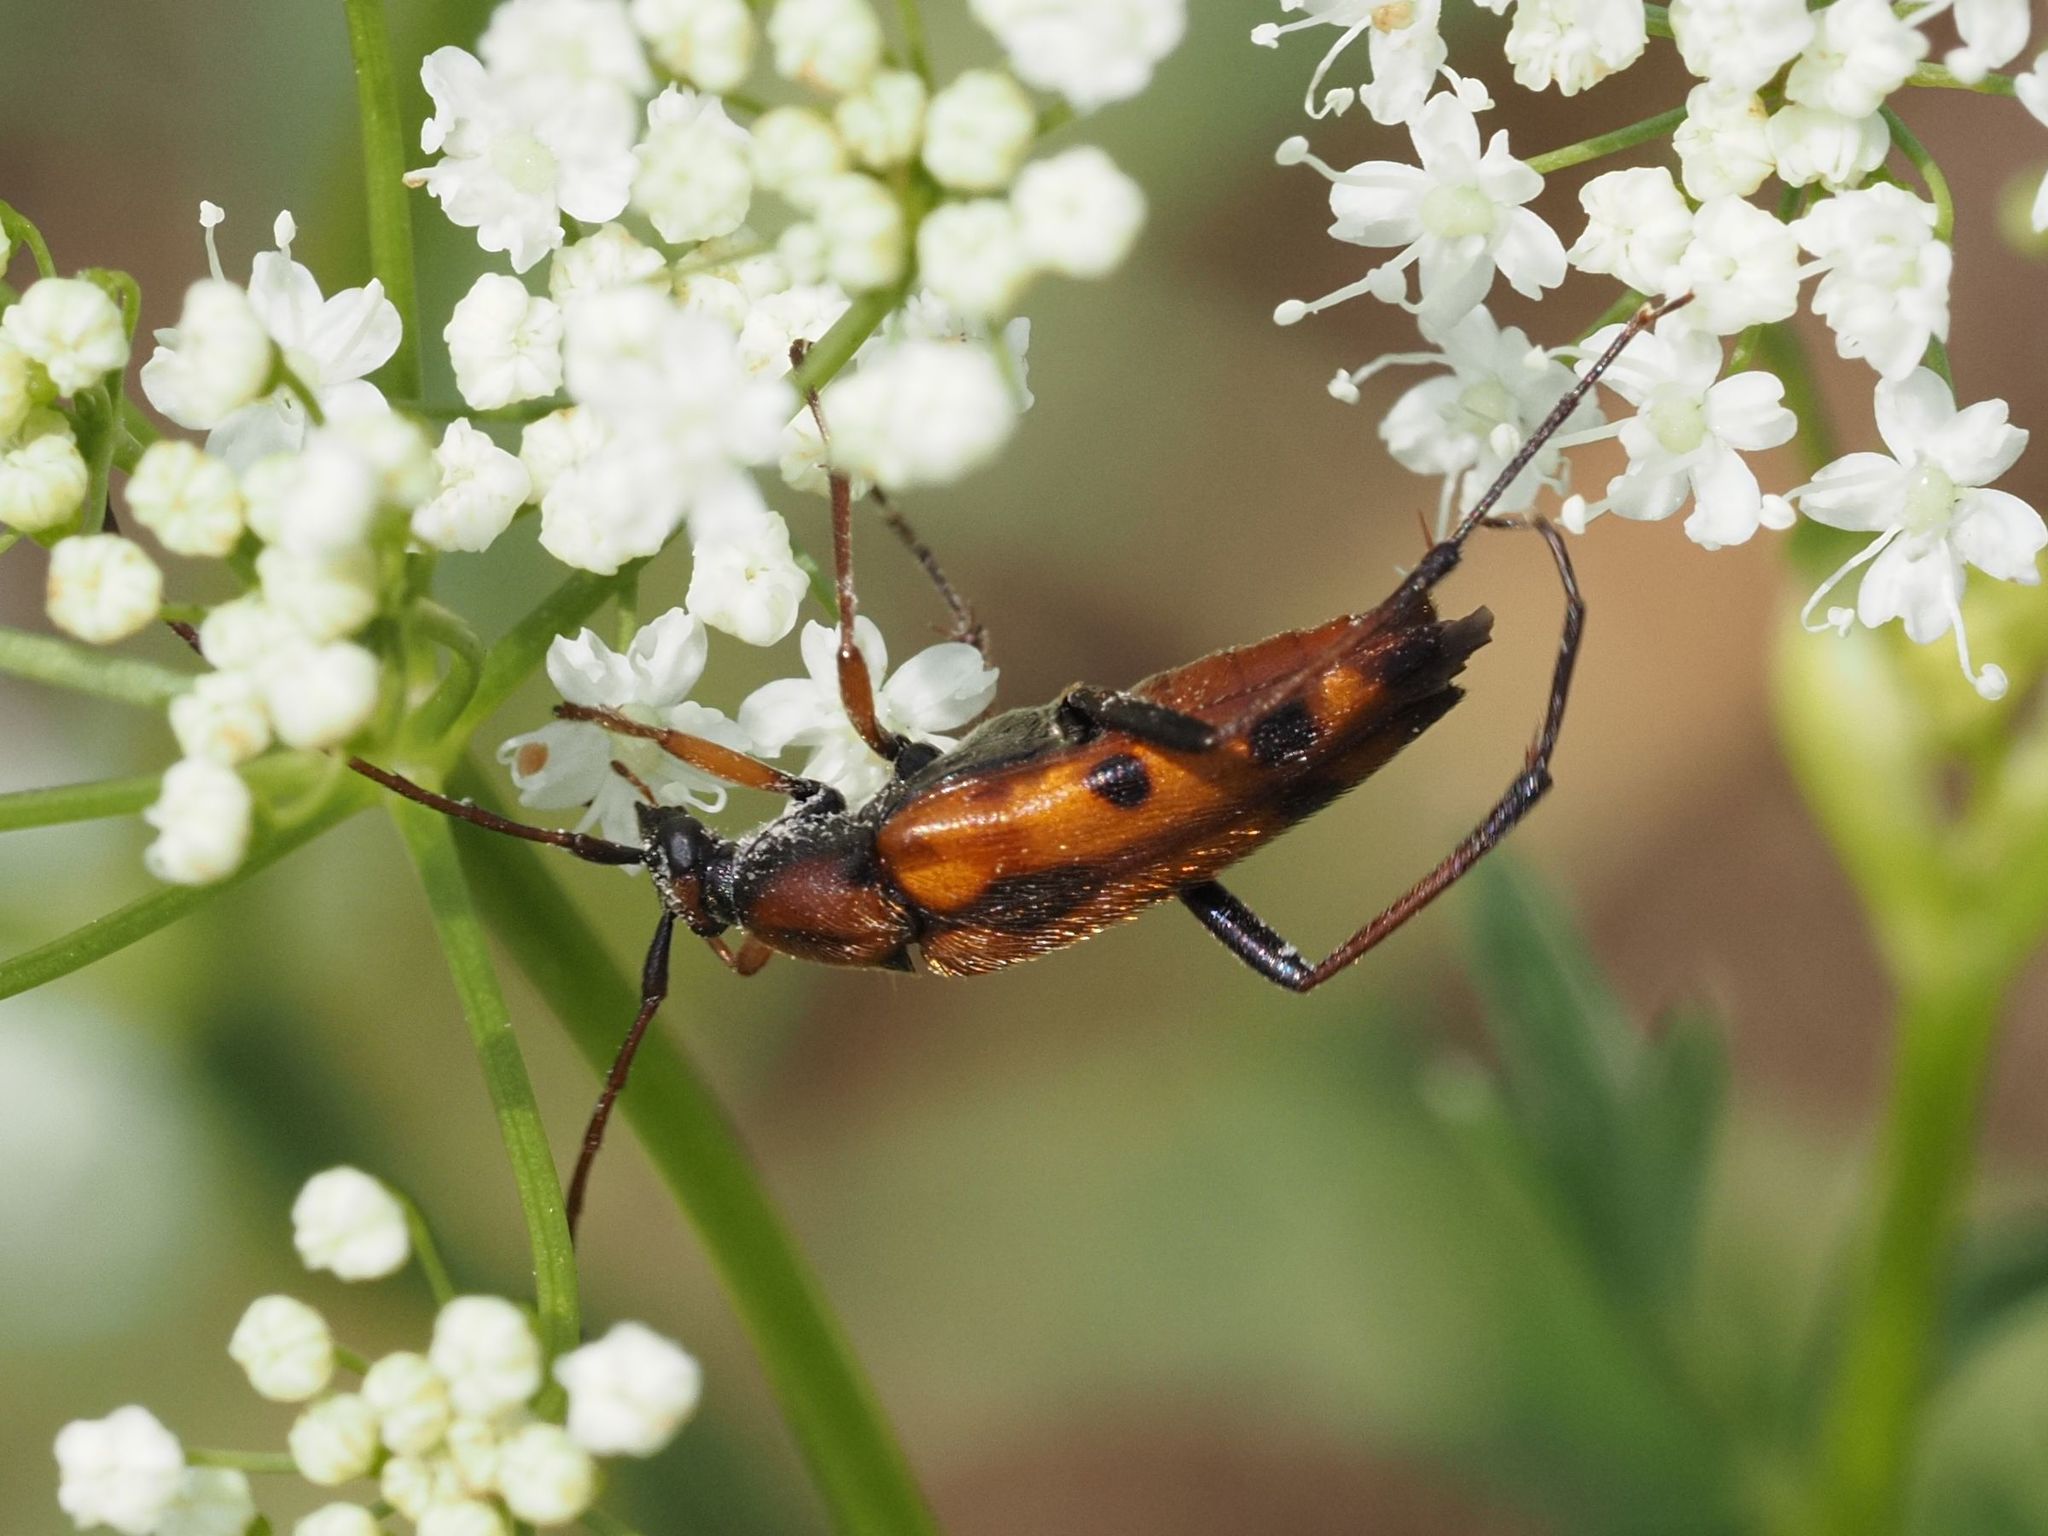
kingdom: Animalia
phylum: Arthropoda
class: Insecta
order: Coleoptera
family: Cerambycidae
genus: Stenurella
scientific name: Stenurella septempunctata
